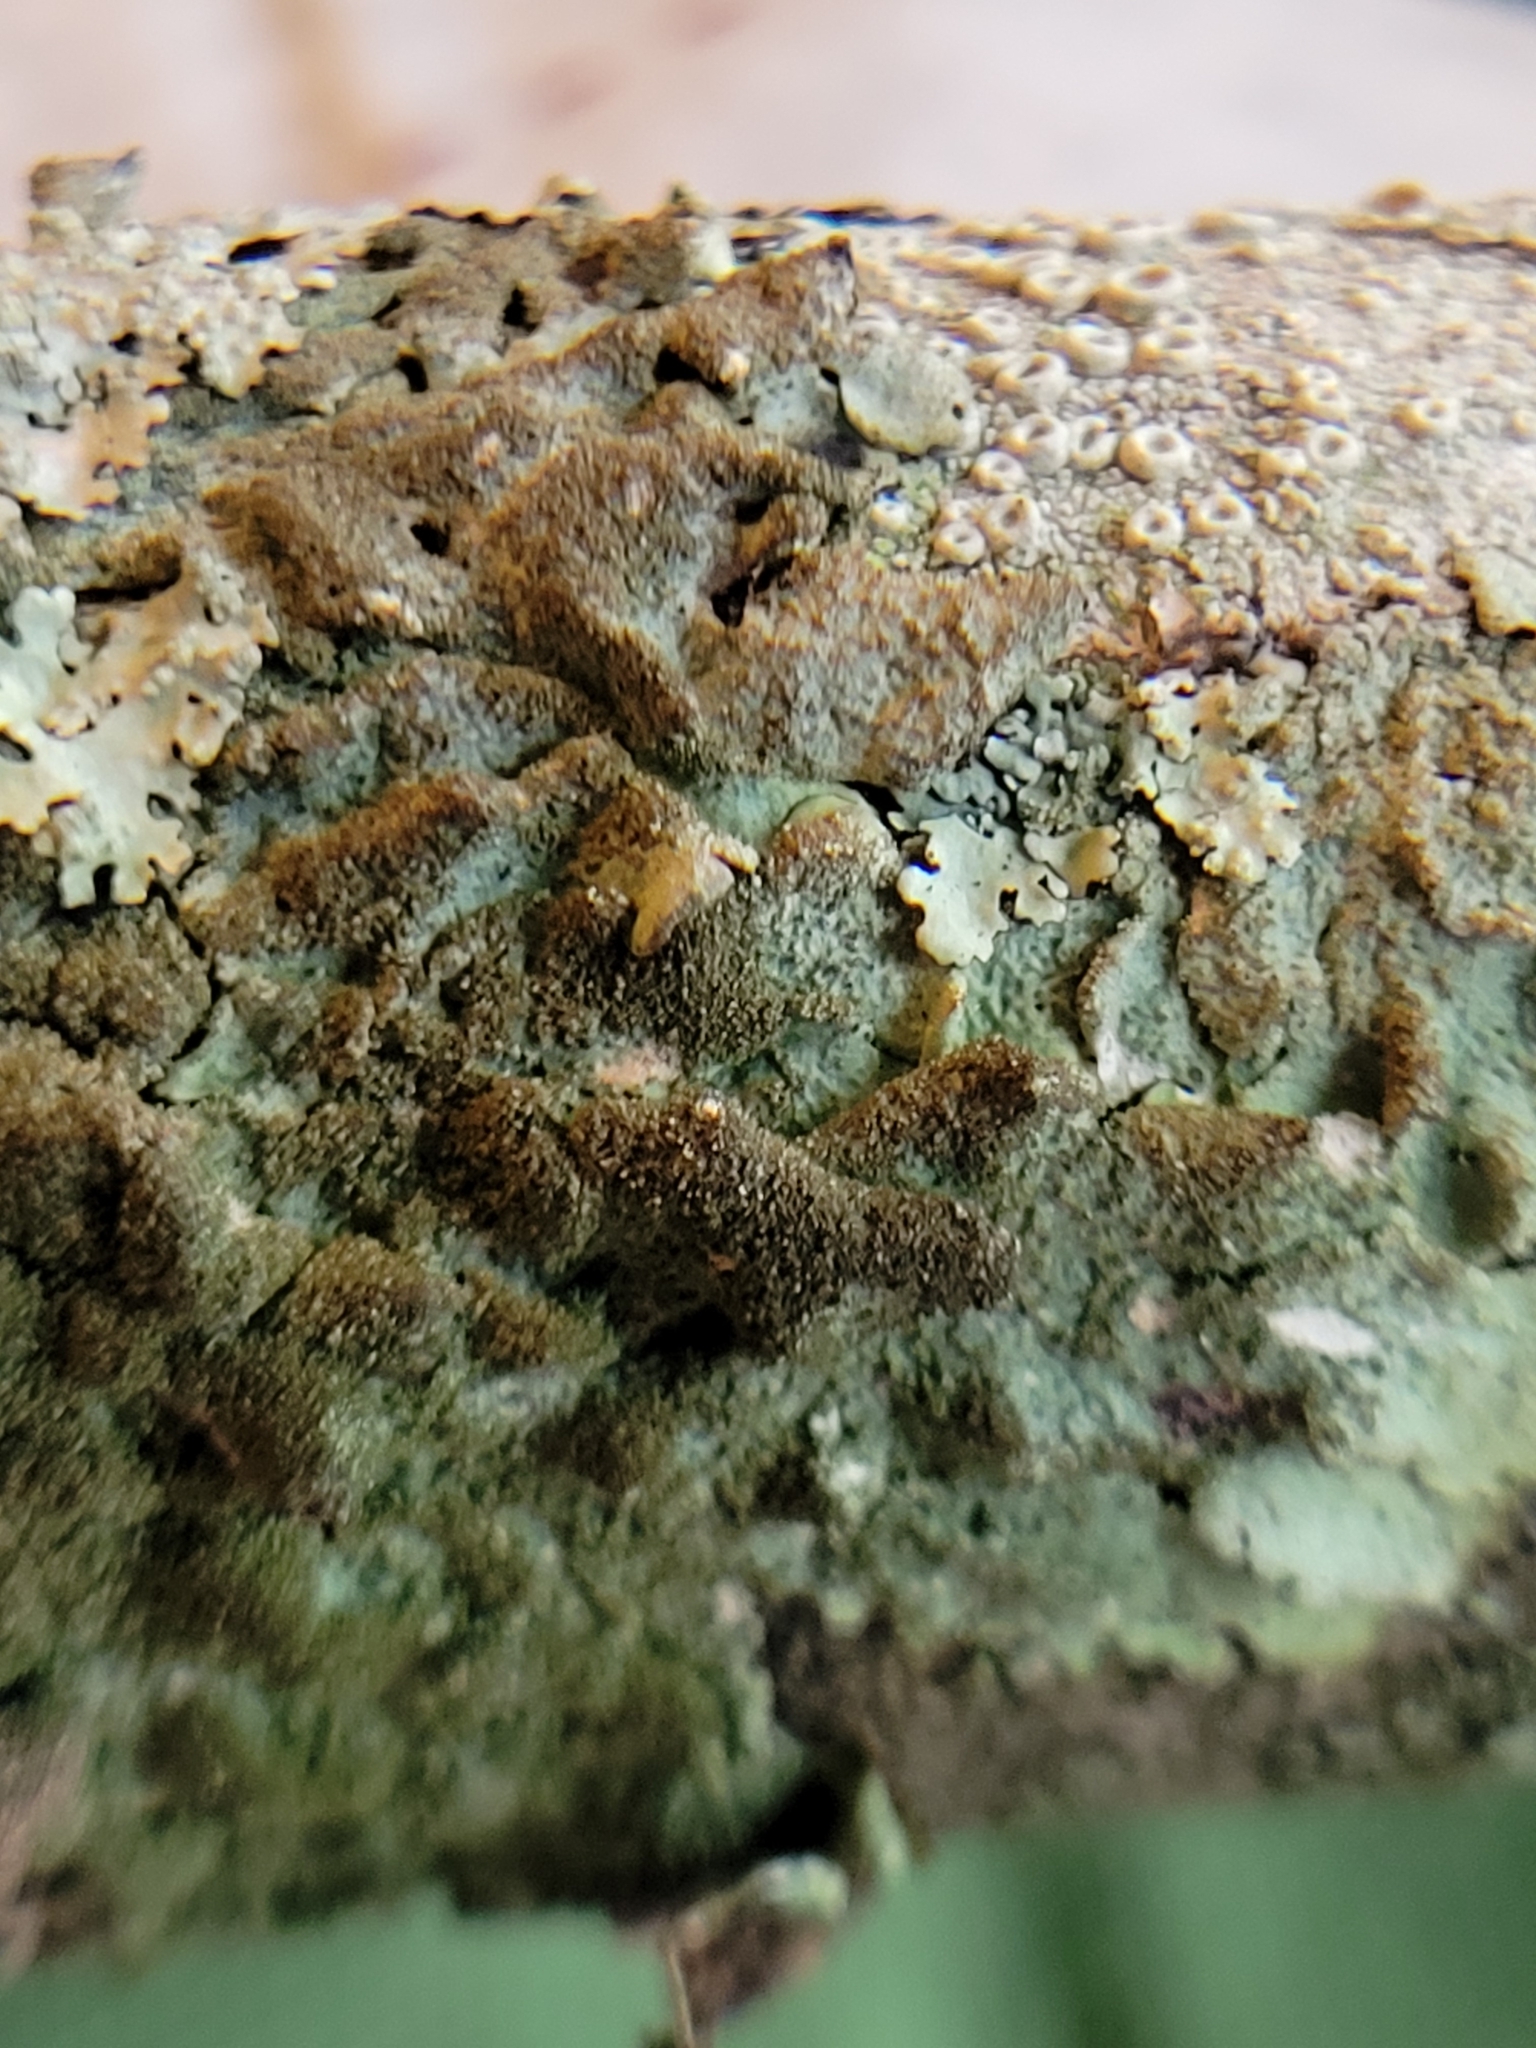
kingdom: Fungi
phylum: Ascomycota
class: Lecanoromycetes
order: Lecanorales
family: Parmeliaceae
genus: Canoparmelia
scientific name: Canoparmelia caroliniana
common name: Carolina shield lichen
